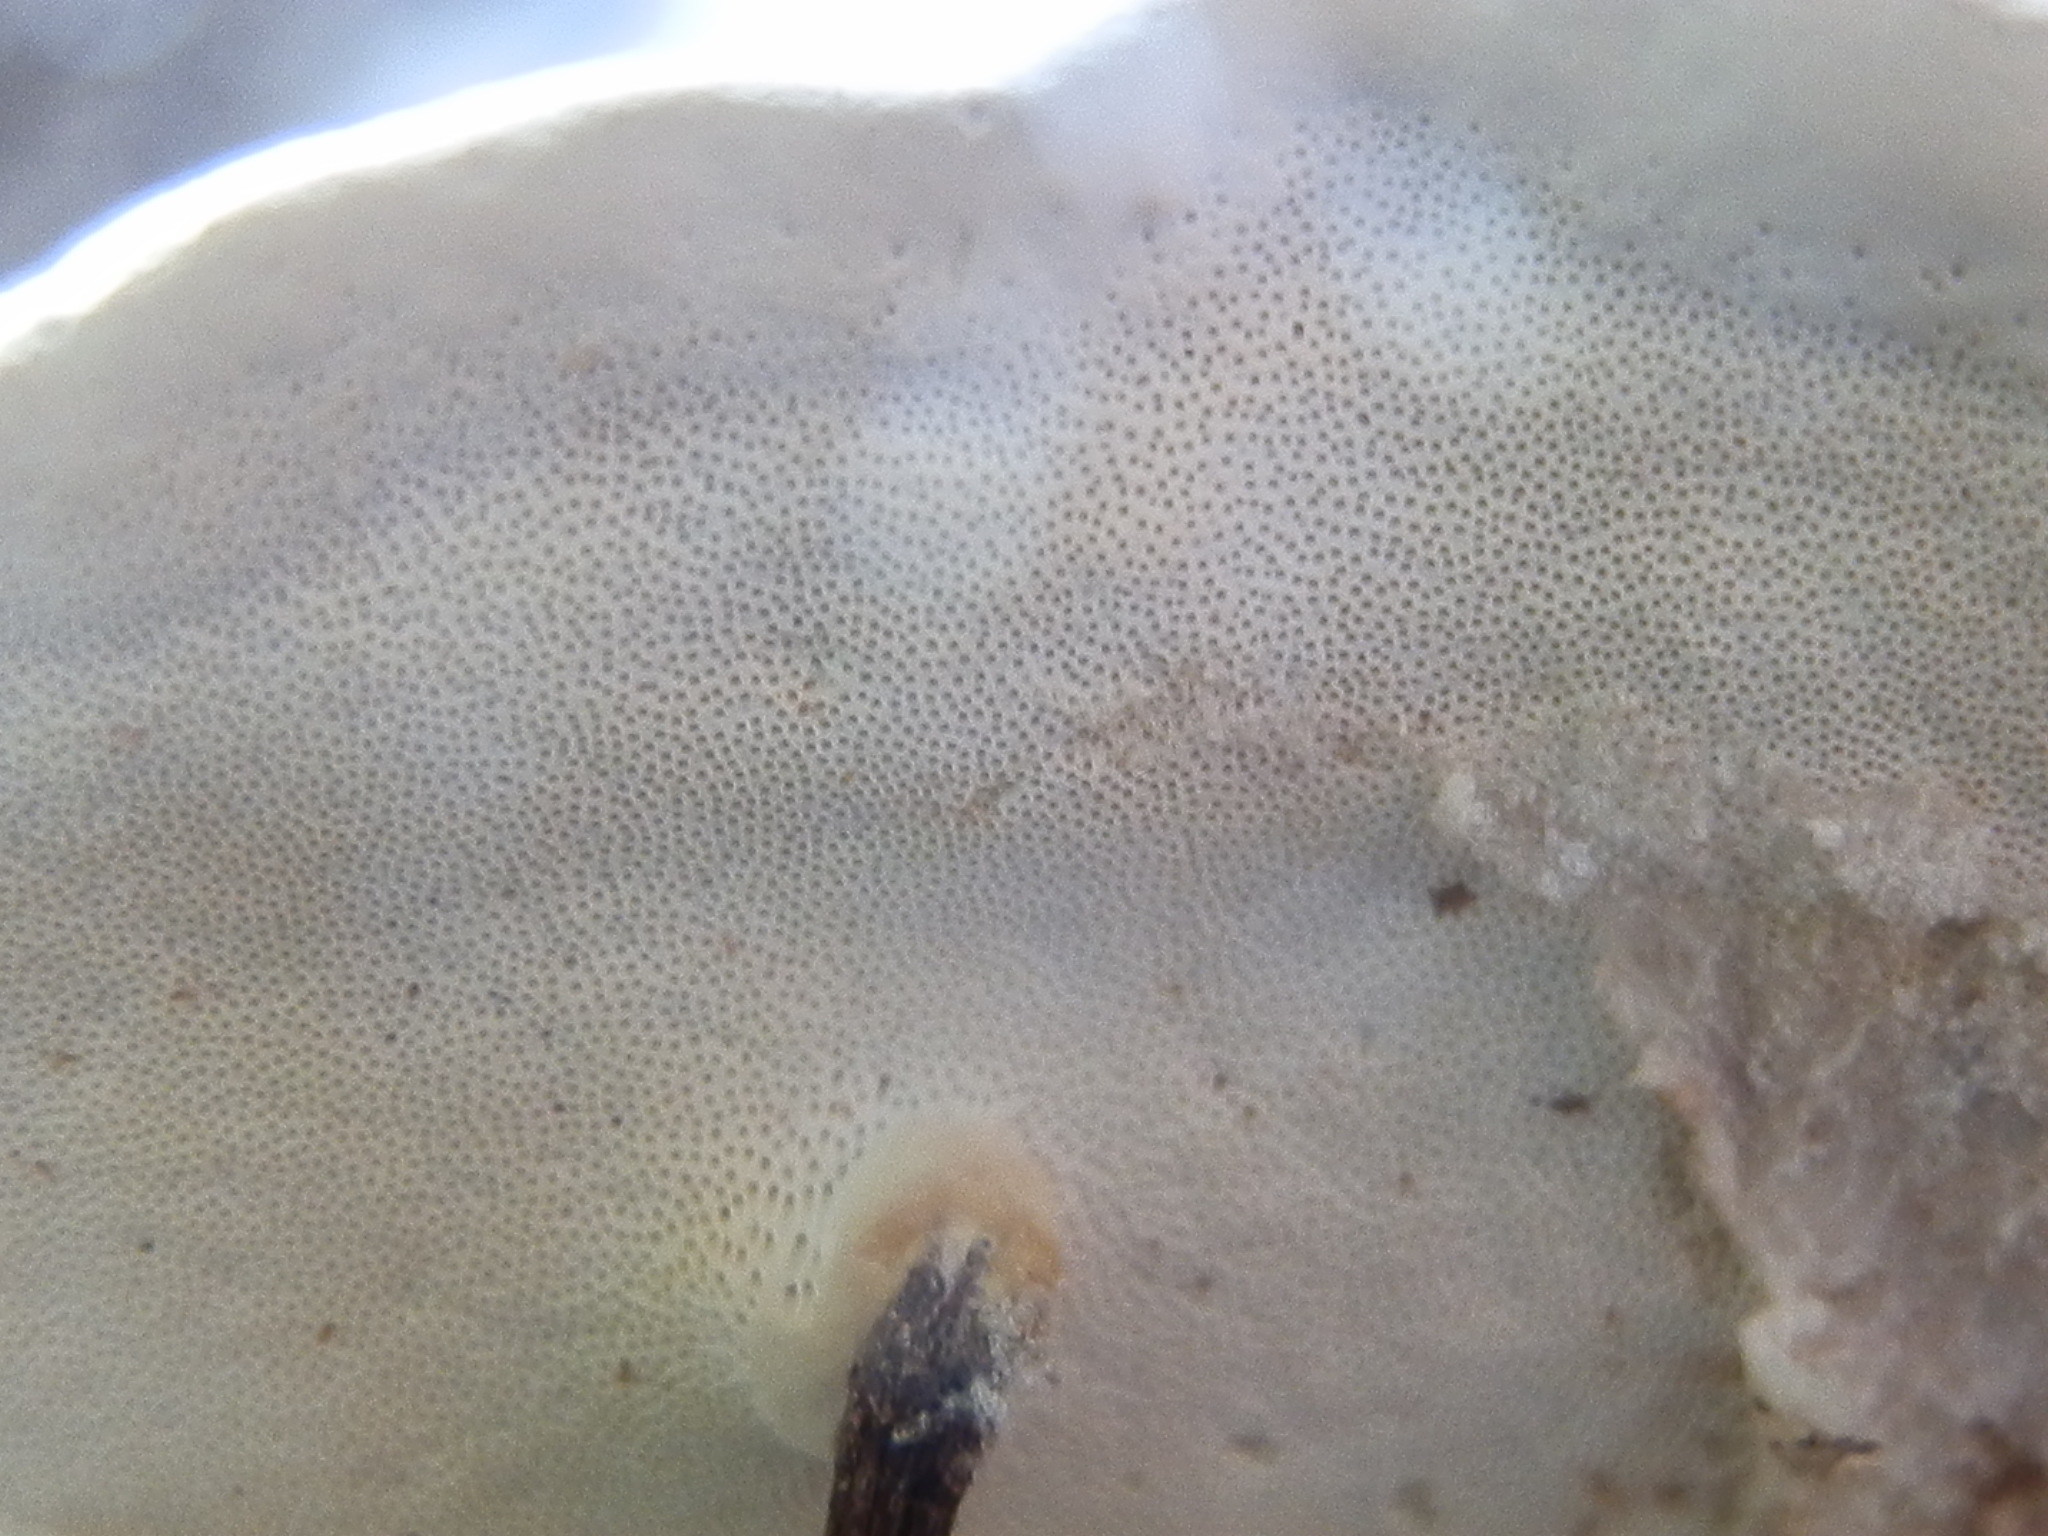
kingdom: Fungi
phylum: Basidiomycota
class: Agaricomycetes
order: Polyporales
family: Fomitopsidaceae
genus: Fomitopsis
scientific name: Fomitopsis schrenkii
